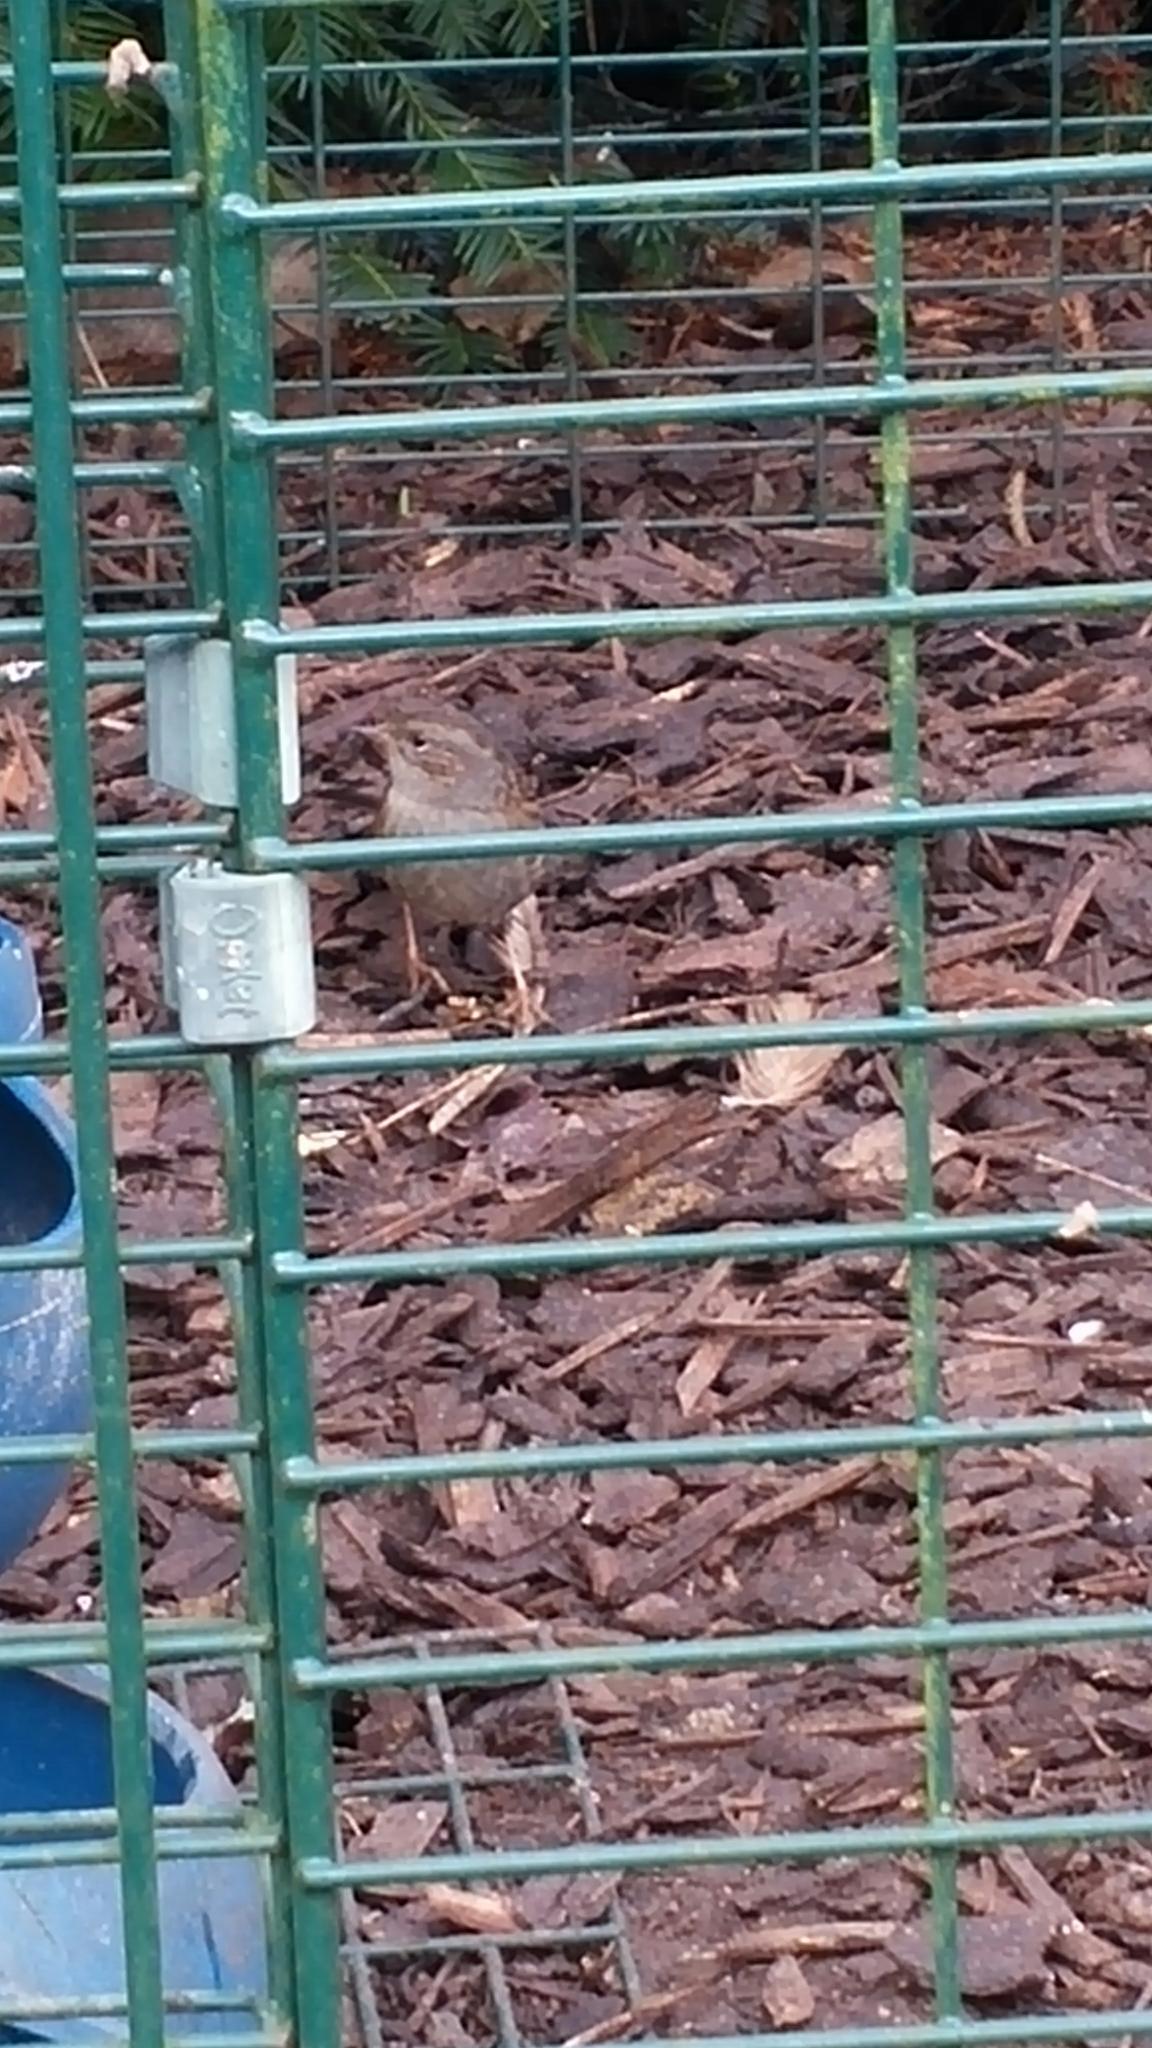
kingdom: Animalia
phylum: Chordata
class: Aves
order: Passeriformes
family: Prunellidae
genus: Prunella
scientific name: Prunella modularis
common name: Dunnock
